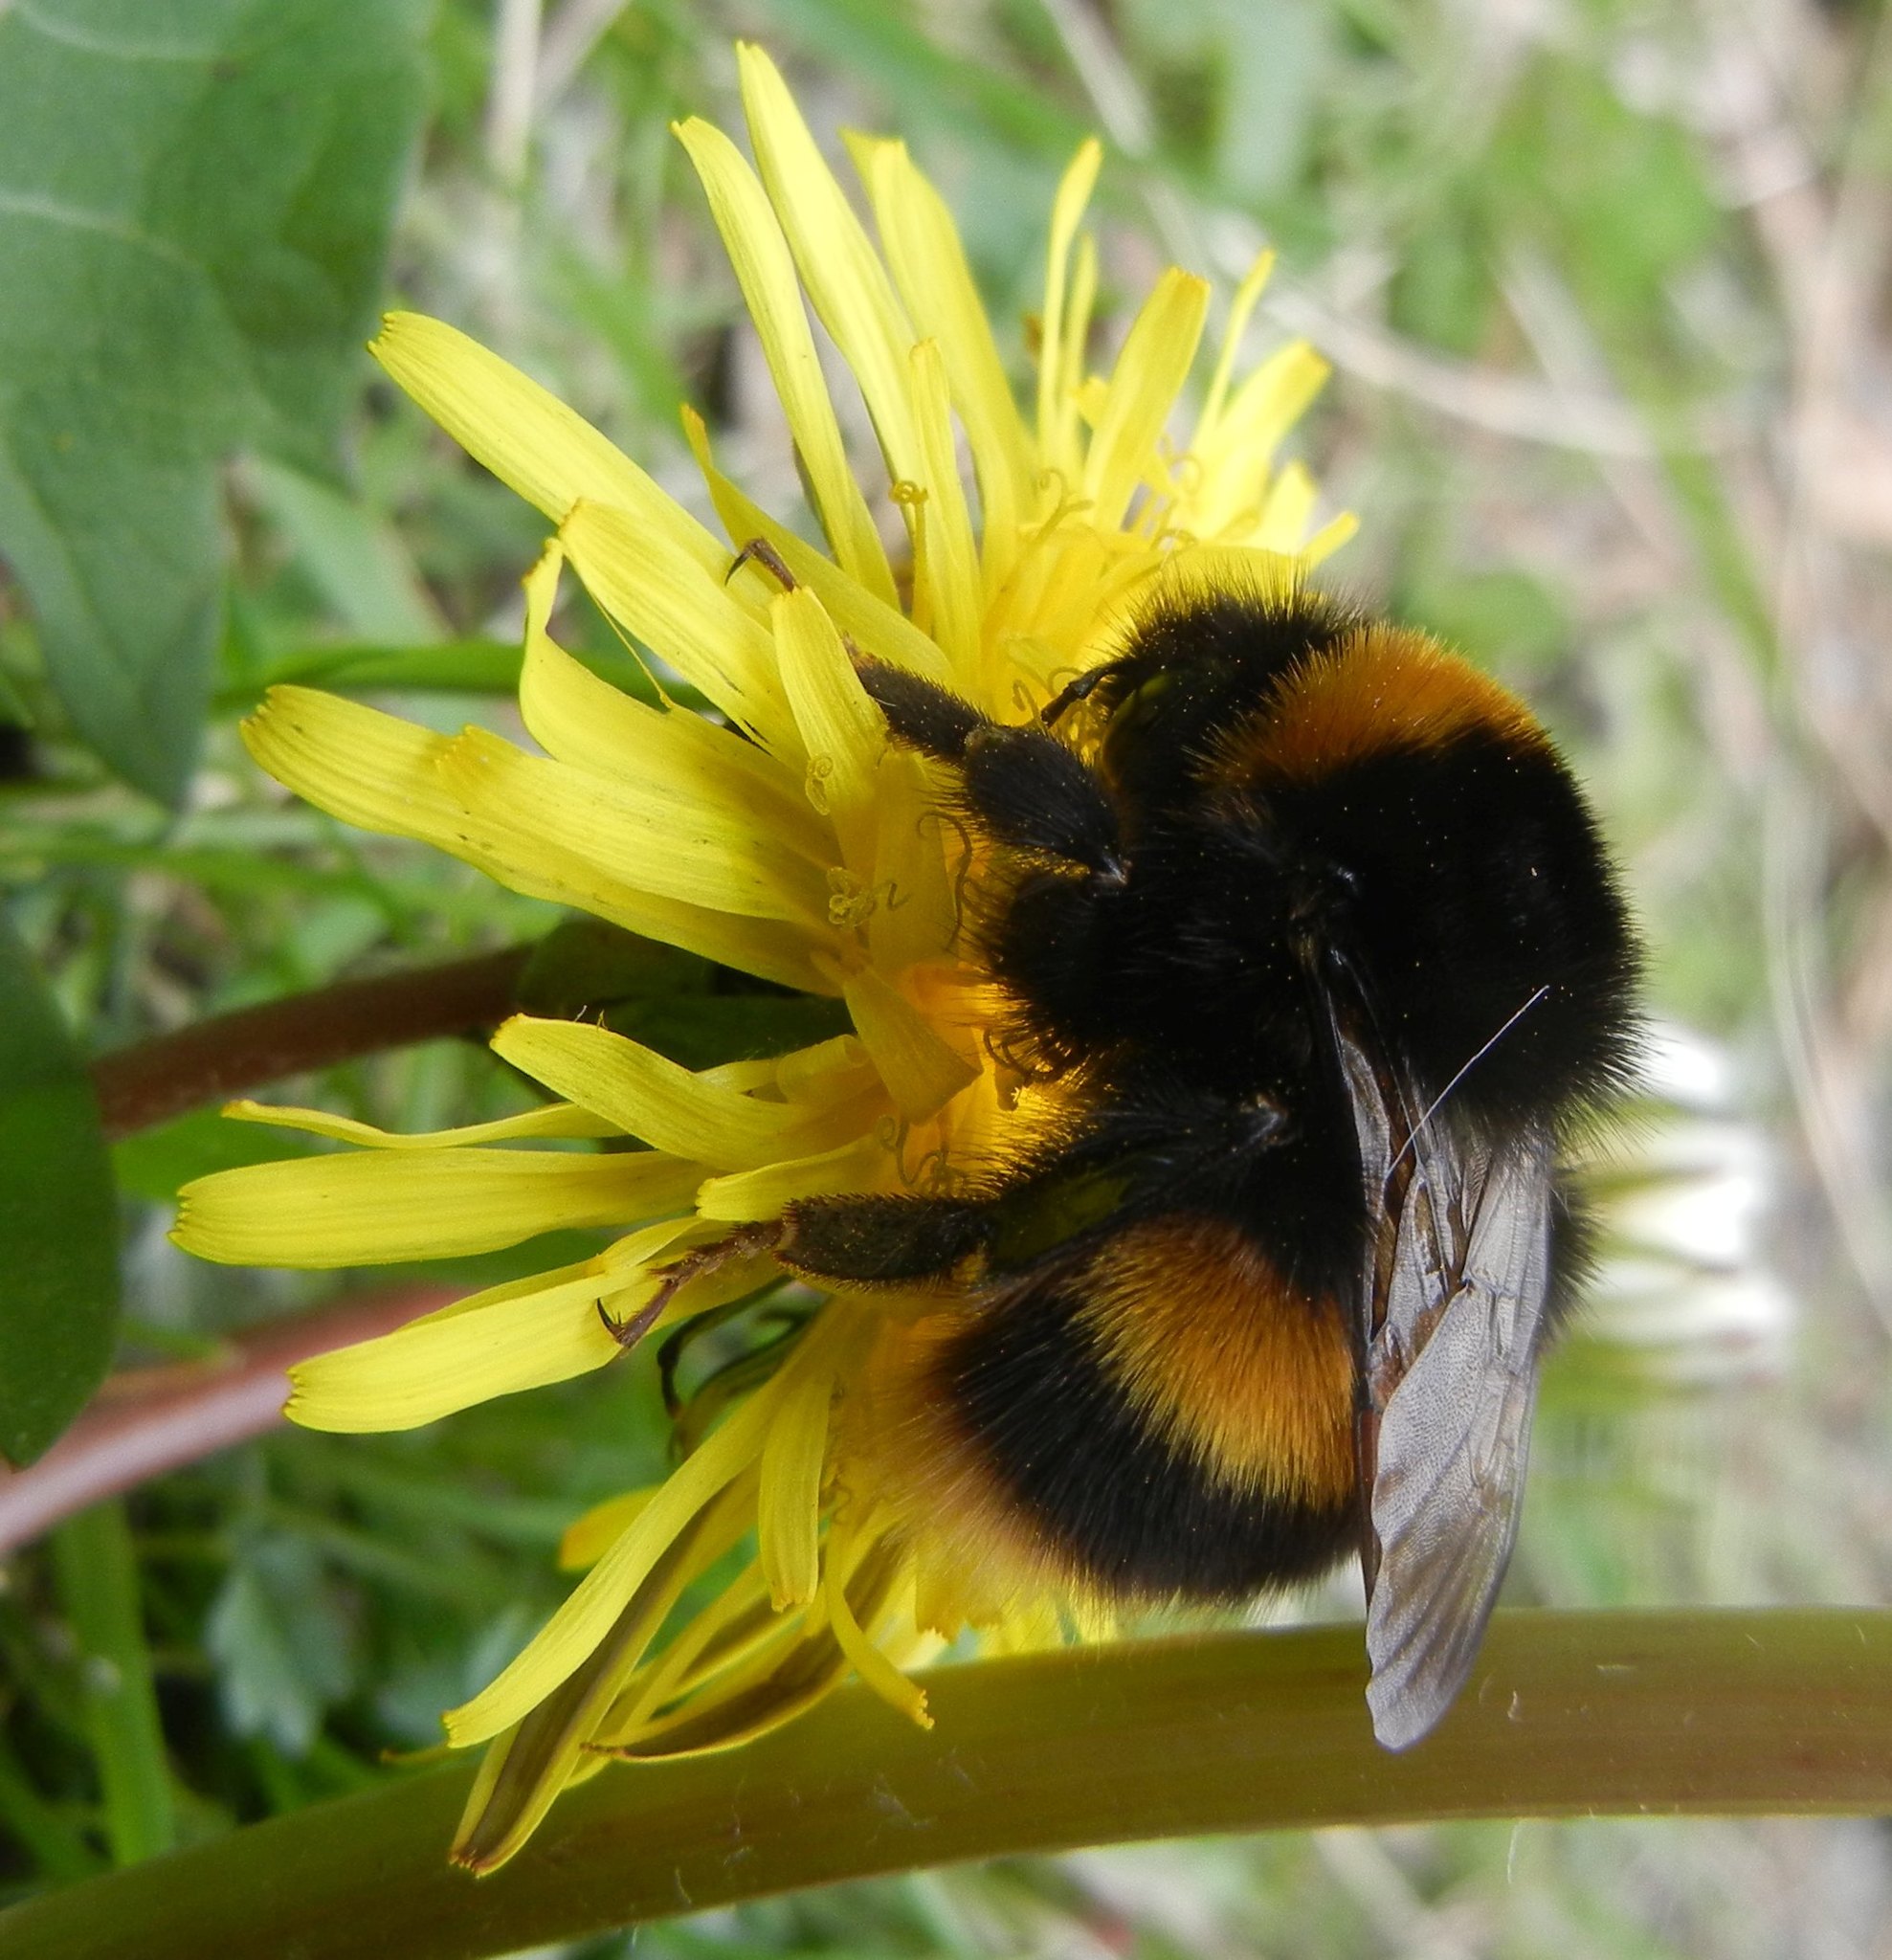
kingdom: Animalia
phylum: Arthropoda
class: Insecta
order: Hymenoptera
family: Apidae
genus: Bombus
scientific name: Bombus terrestris
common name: Buff-tailed bumblebee
